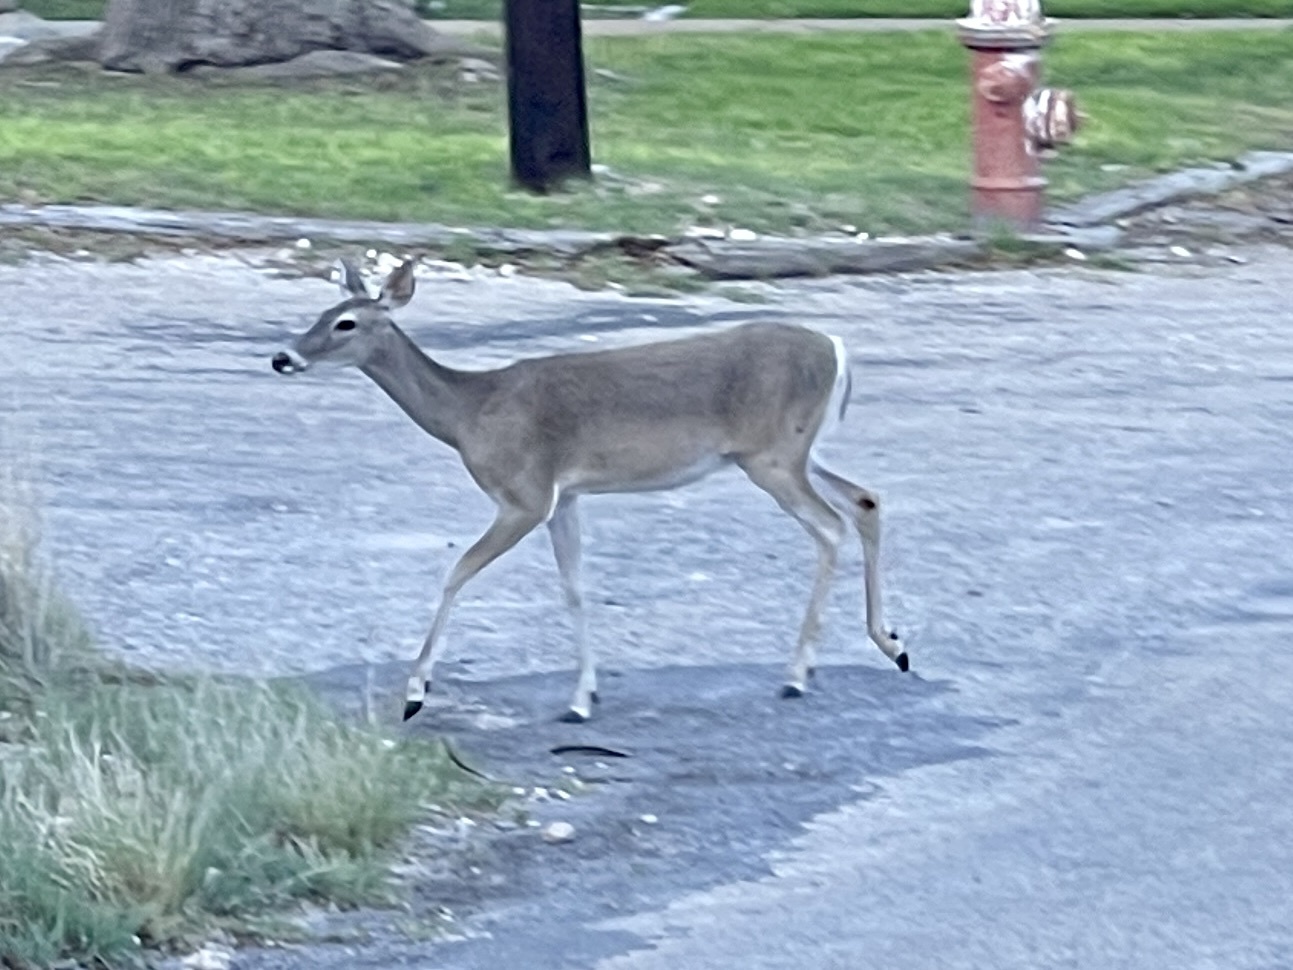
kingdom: Animalia
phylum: Chordata
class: Mammalia
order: Artiodactyla
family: Cervidae
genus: Odocoileus
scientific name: Odocoileus virginianus
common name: White-tailed deer
